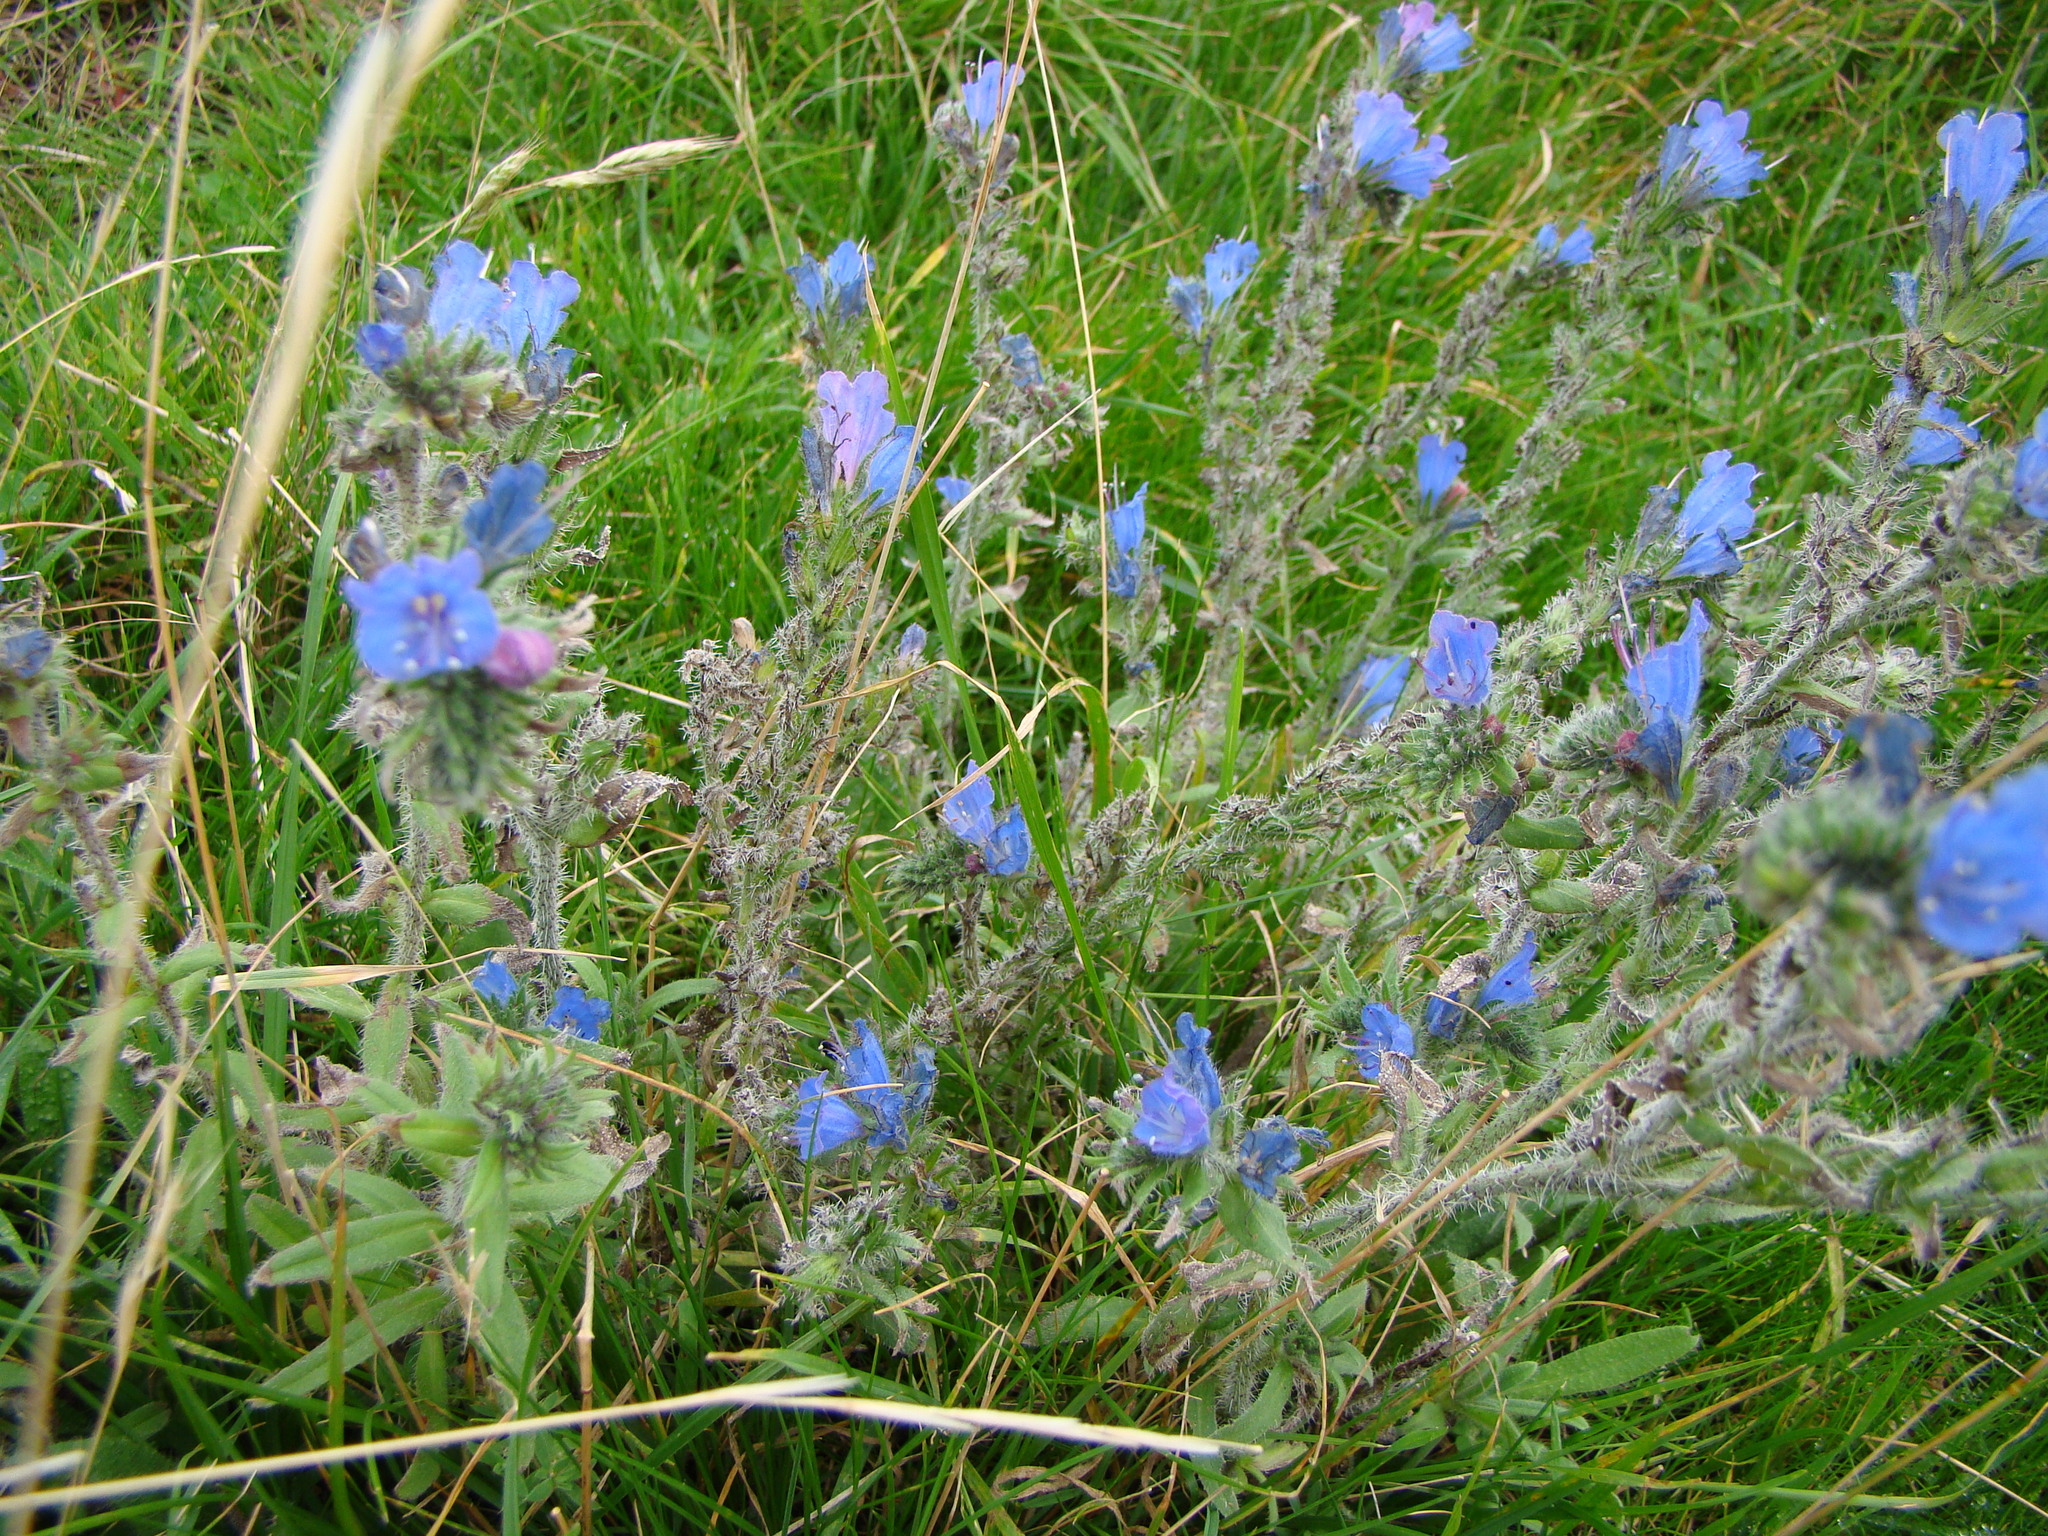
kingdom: Plantae
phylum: Tracheophyta
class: Magnoliopsida
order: Boraginales
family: Boraginaceae
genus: Echium
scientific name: Echium vulgare
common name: Common viper's bugloss
